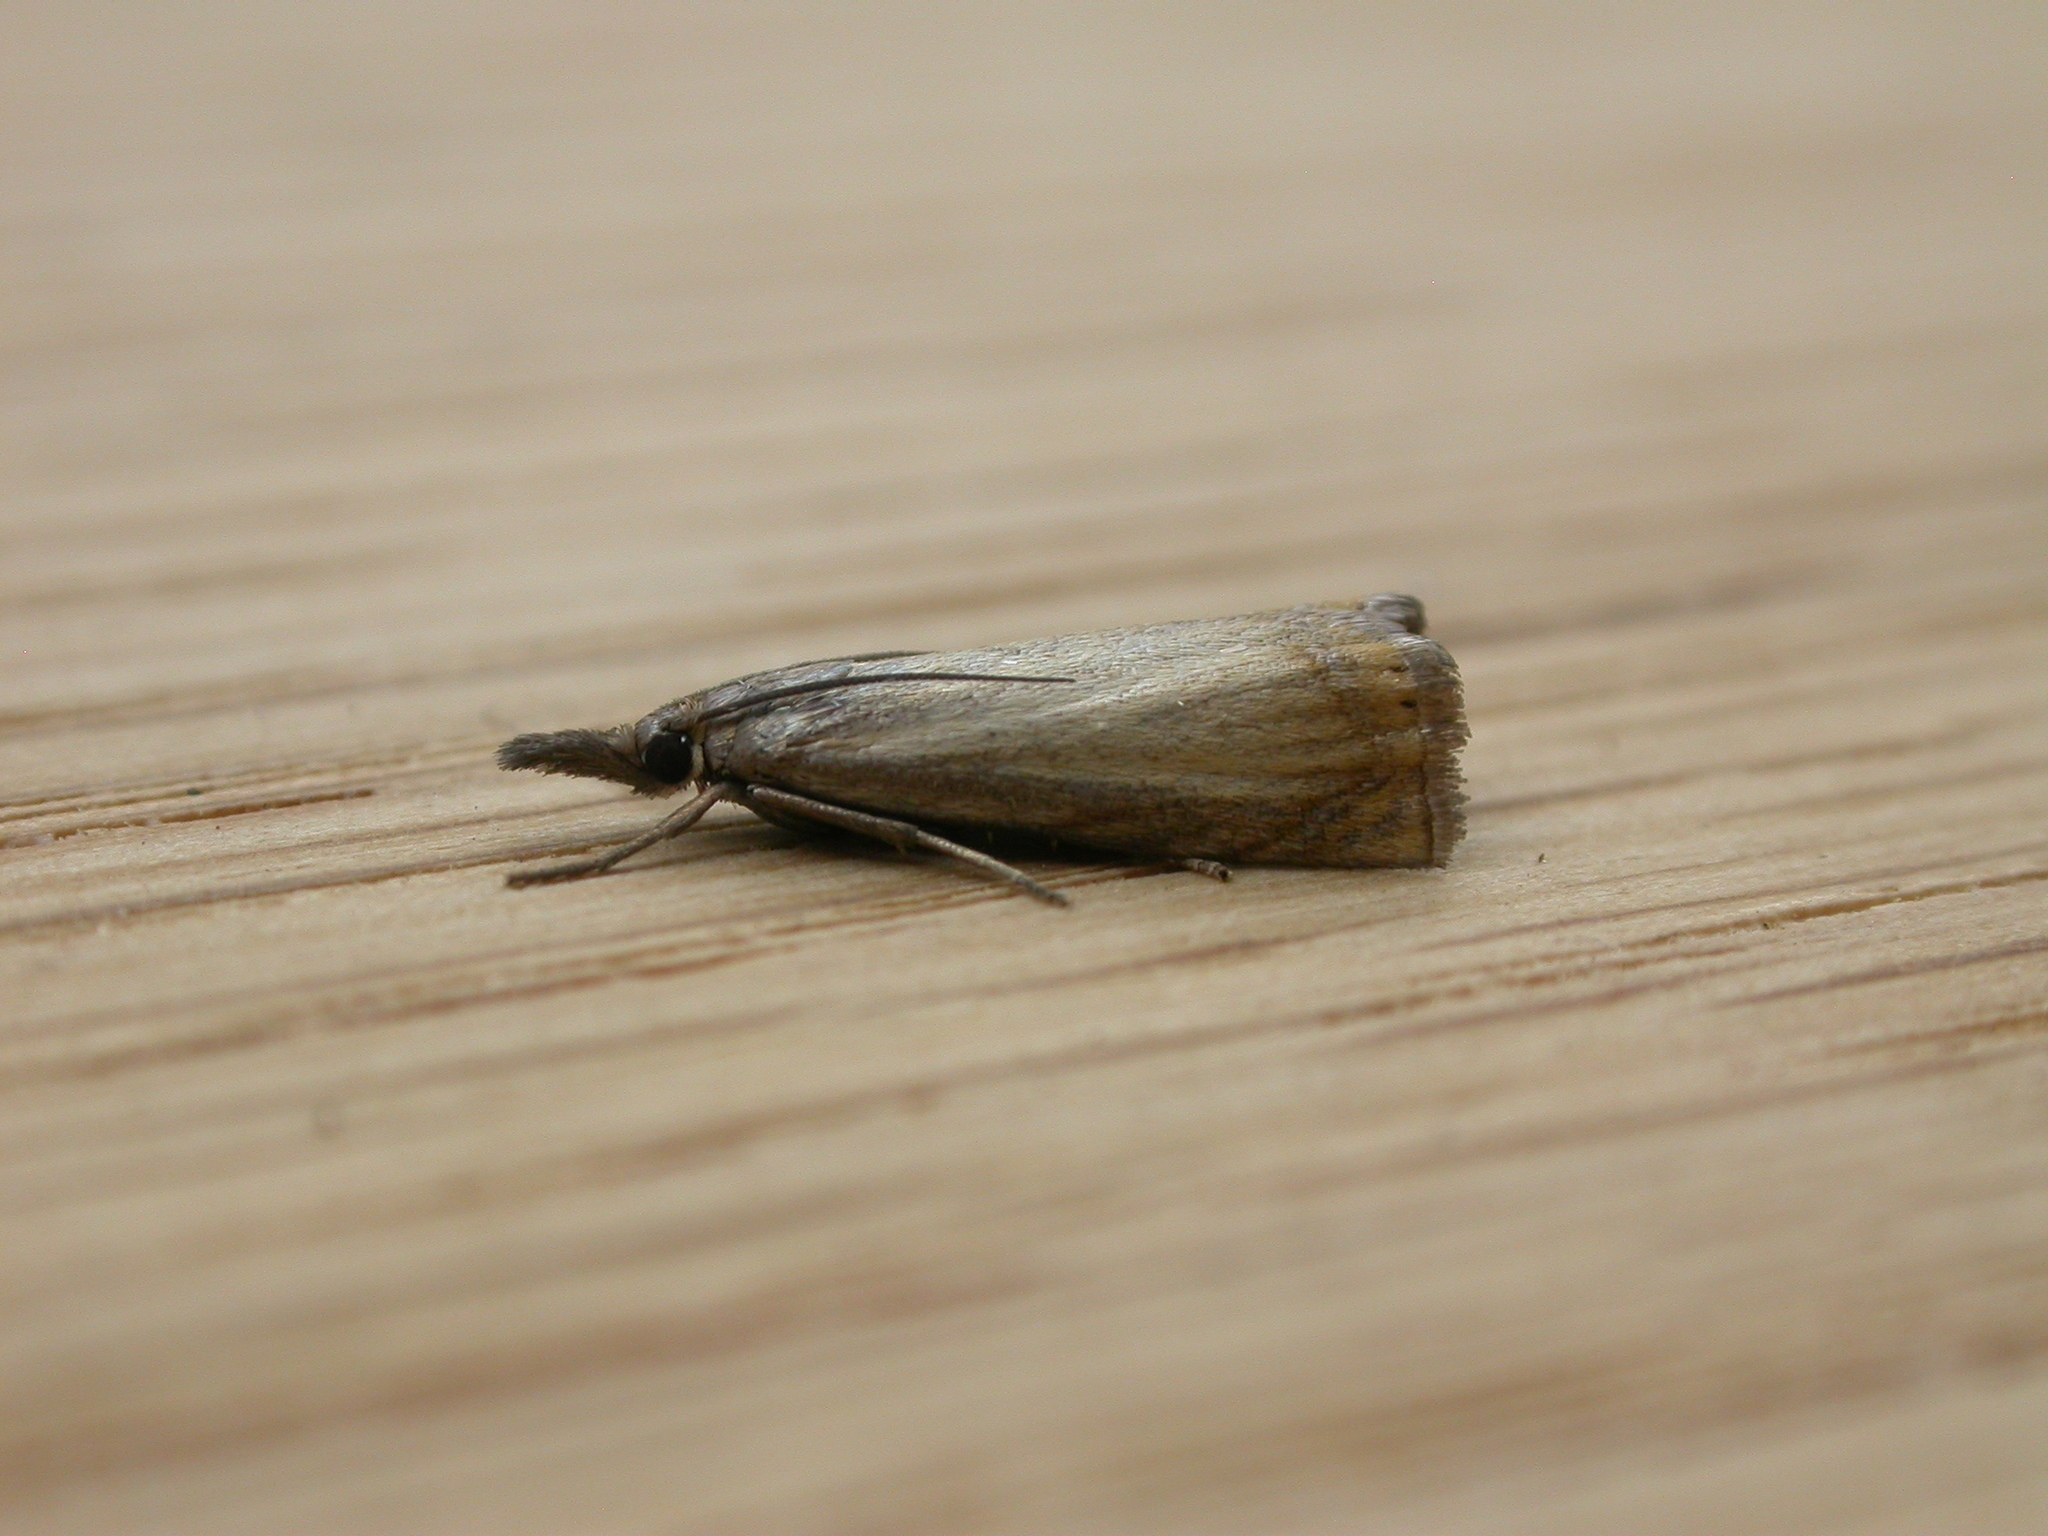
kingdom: Animalia
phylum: Arthropoda
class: Insecta
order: Lepidoptera
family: Crambidae
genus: Chrysoteuchia
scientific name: Chrysoteuchia culmella
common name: Garden grass-veneer
